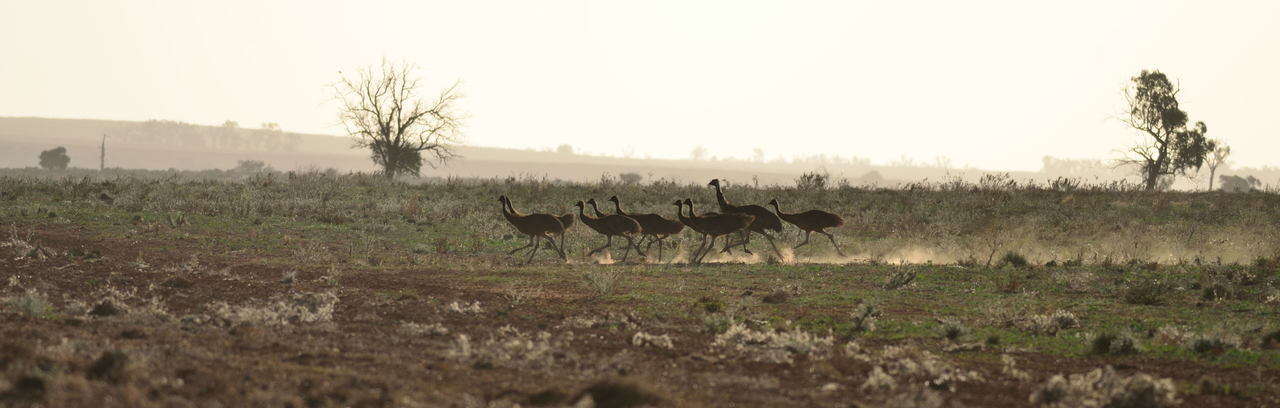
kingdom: Animalia
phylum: Chordata
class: Aves
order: Casuariiformes
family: Dromaiidae
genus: Dromaius
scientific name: Dromaius novaehollandiae
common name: Emu
